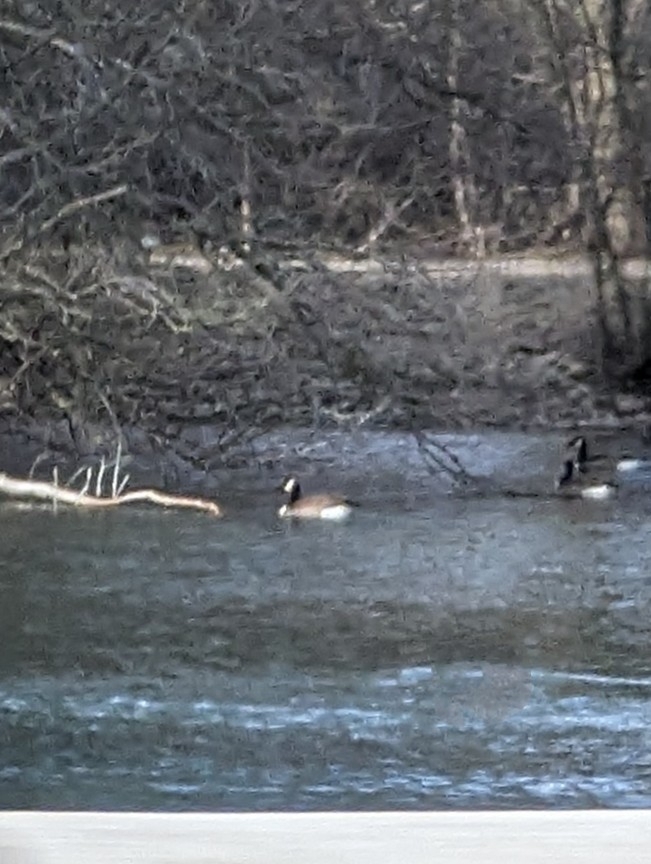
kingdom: Animalia
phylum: Chordata
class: Aves
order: Anseriformes
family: Anatidae
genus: Branta
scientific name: Branta canadensis
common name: Canada goose
